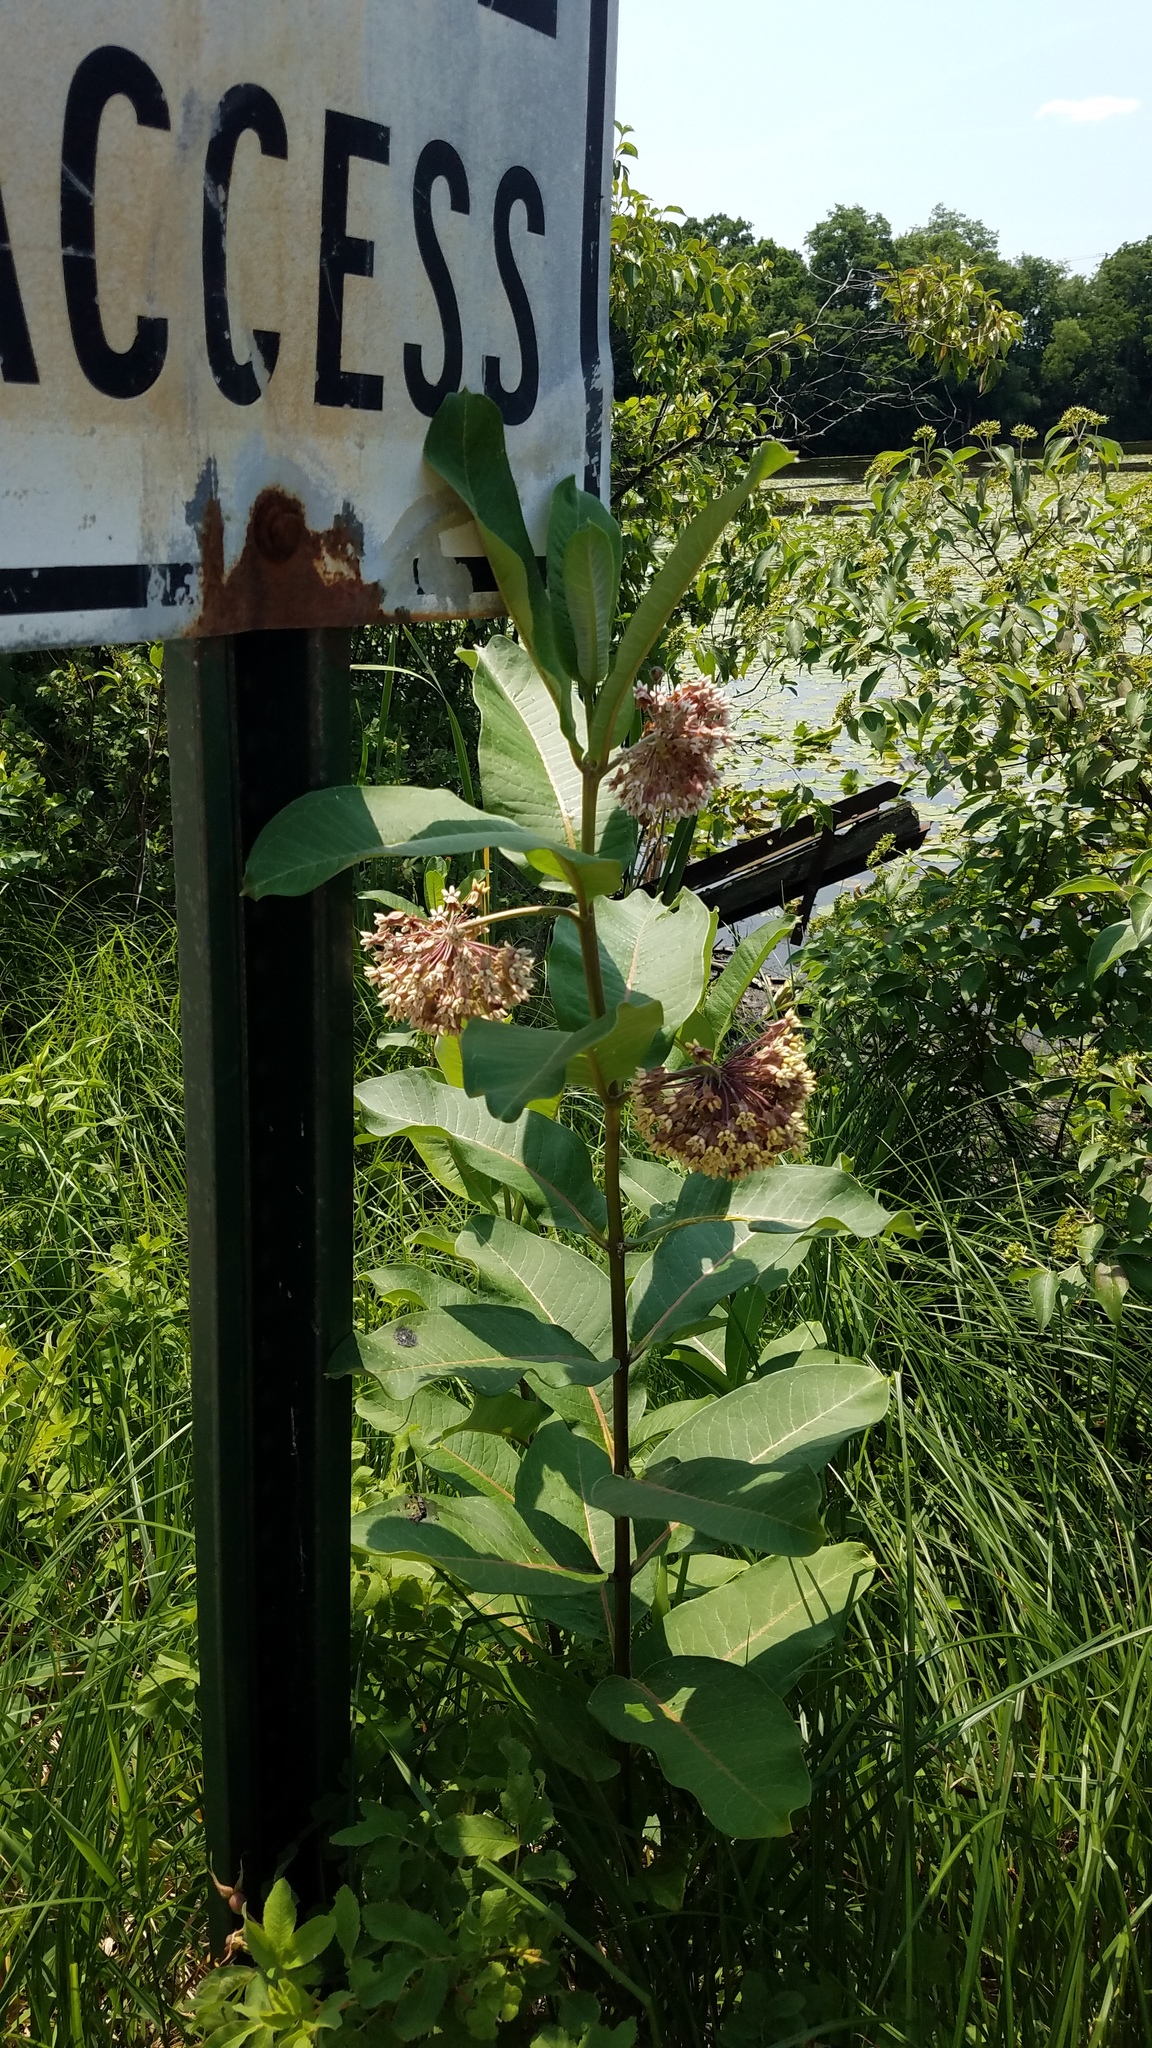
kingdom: Plantae
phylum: Tracheophyta
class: Magnoliopsida
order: Gentianales
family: Apocynaceae
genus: Asclepias
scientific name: Asclepias syriaca
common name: Common milkweed
